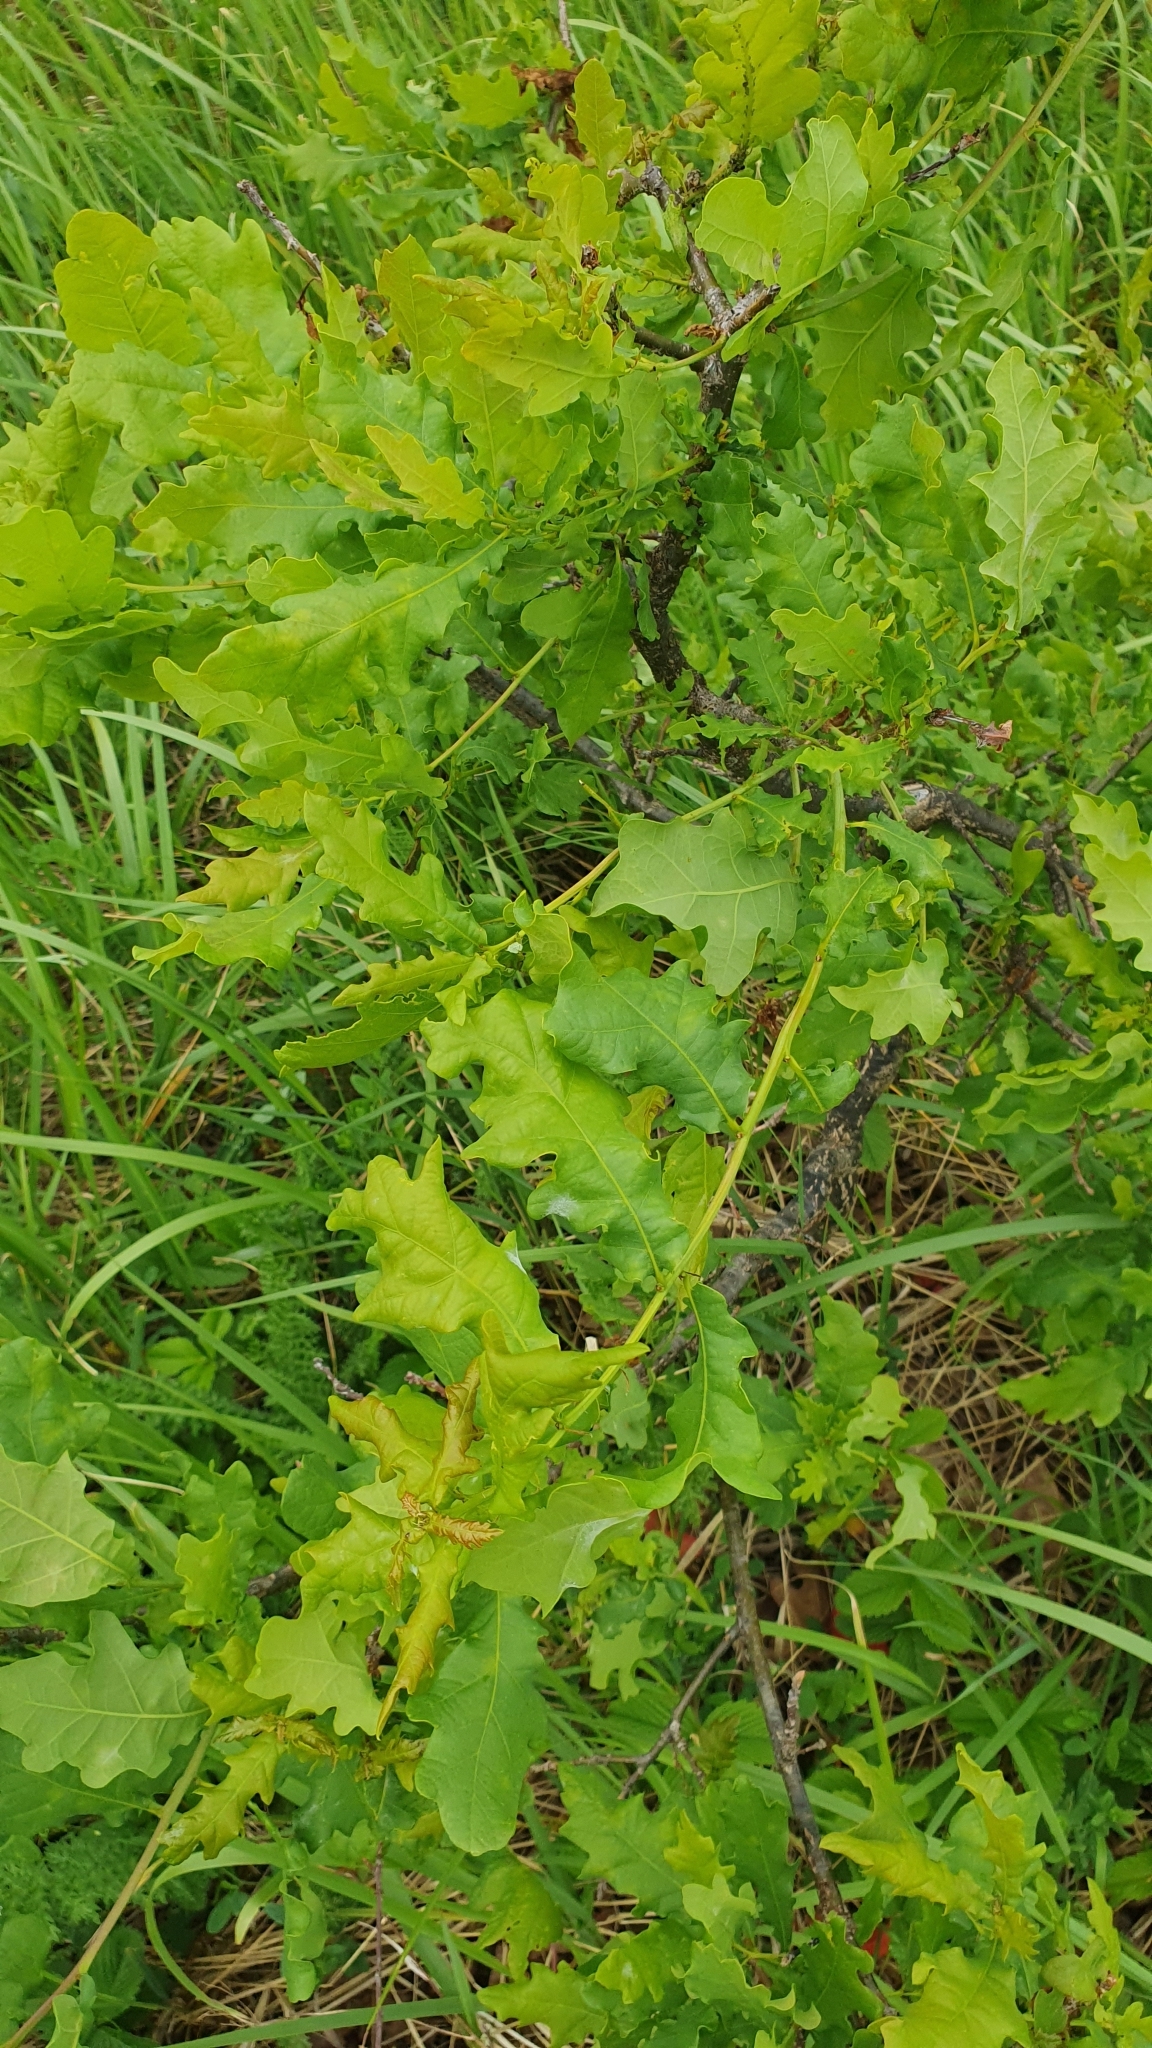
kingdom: Plantae
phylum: Tracheophyta
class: Magnoliopsida
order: Fagales
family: Fagaceae
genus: Quercus
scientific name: Quercus robur
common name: Pedunculate oak
